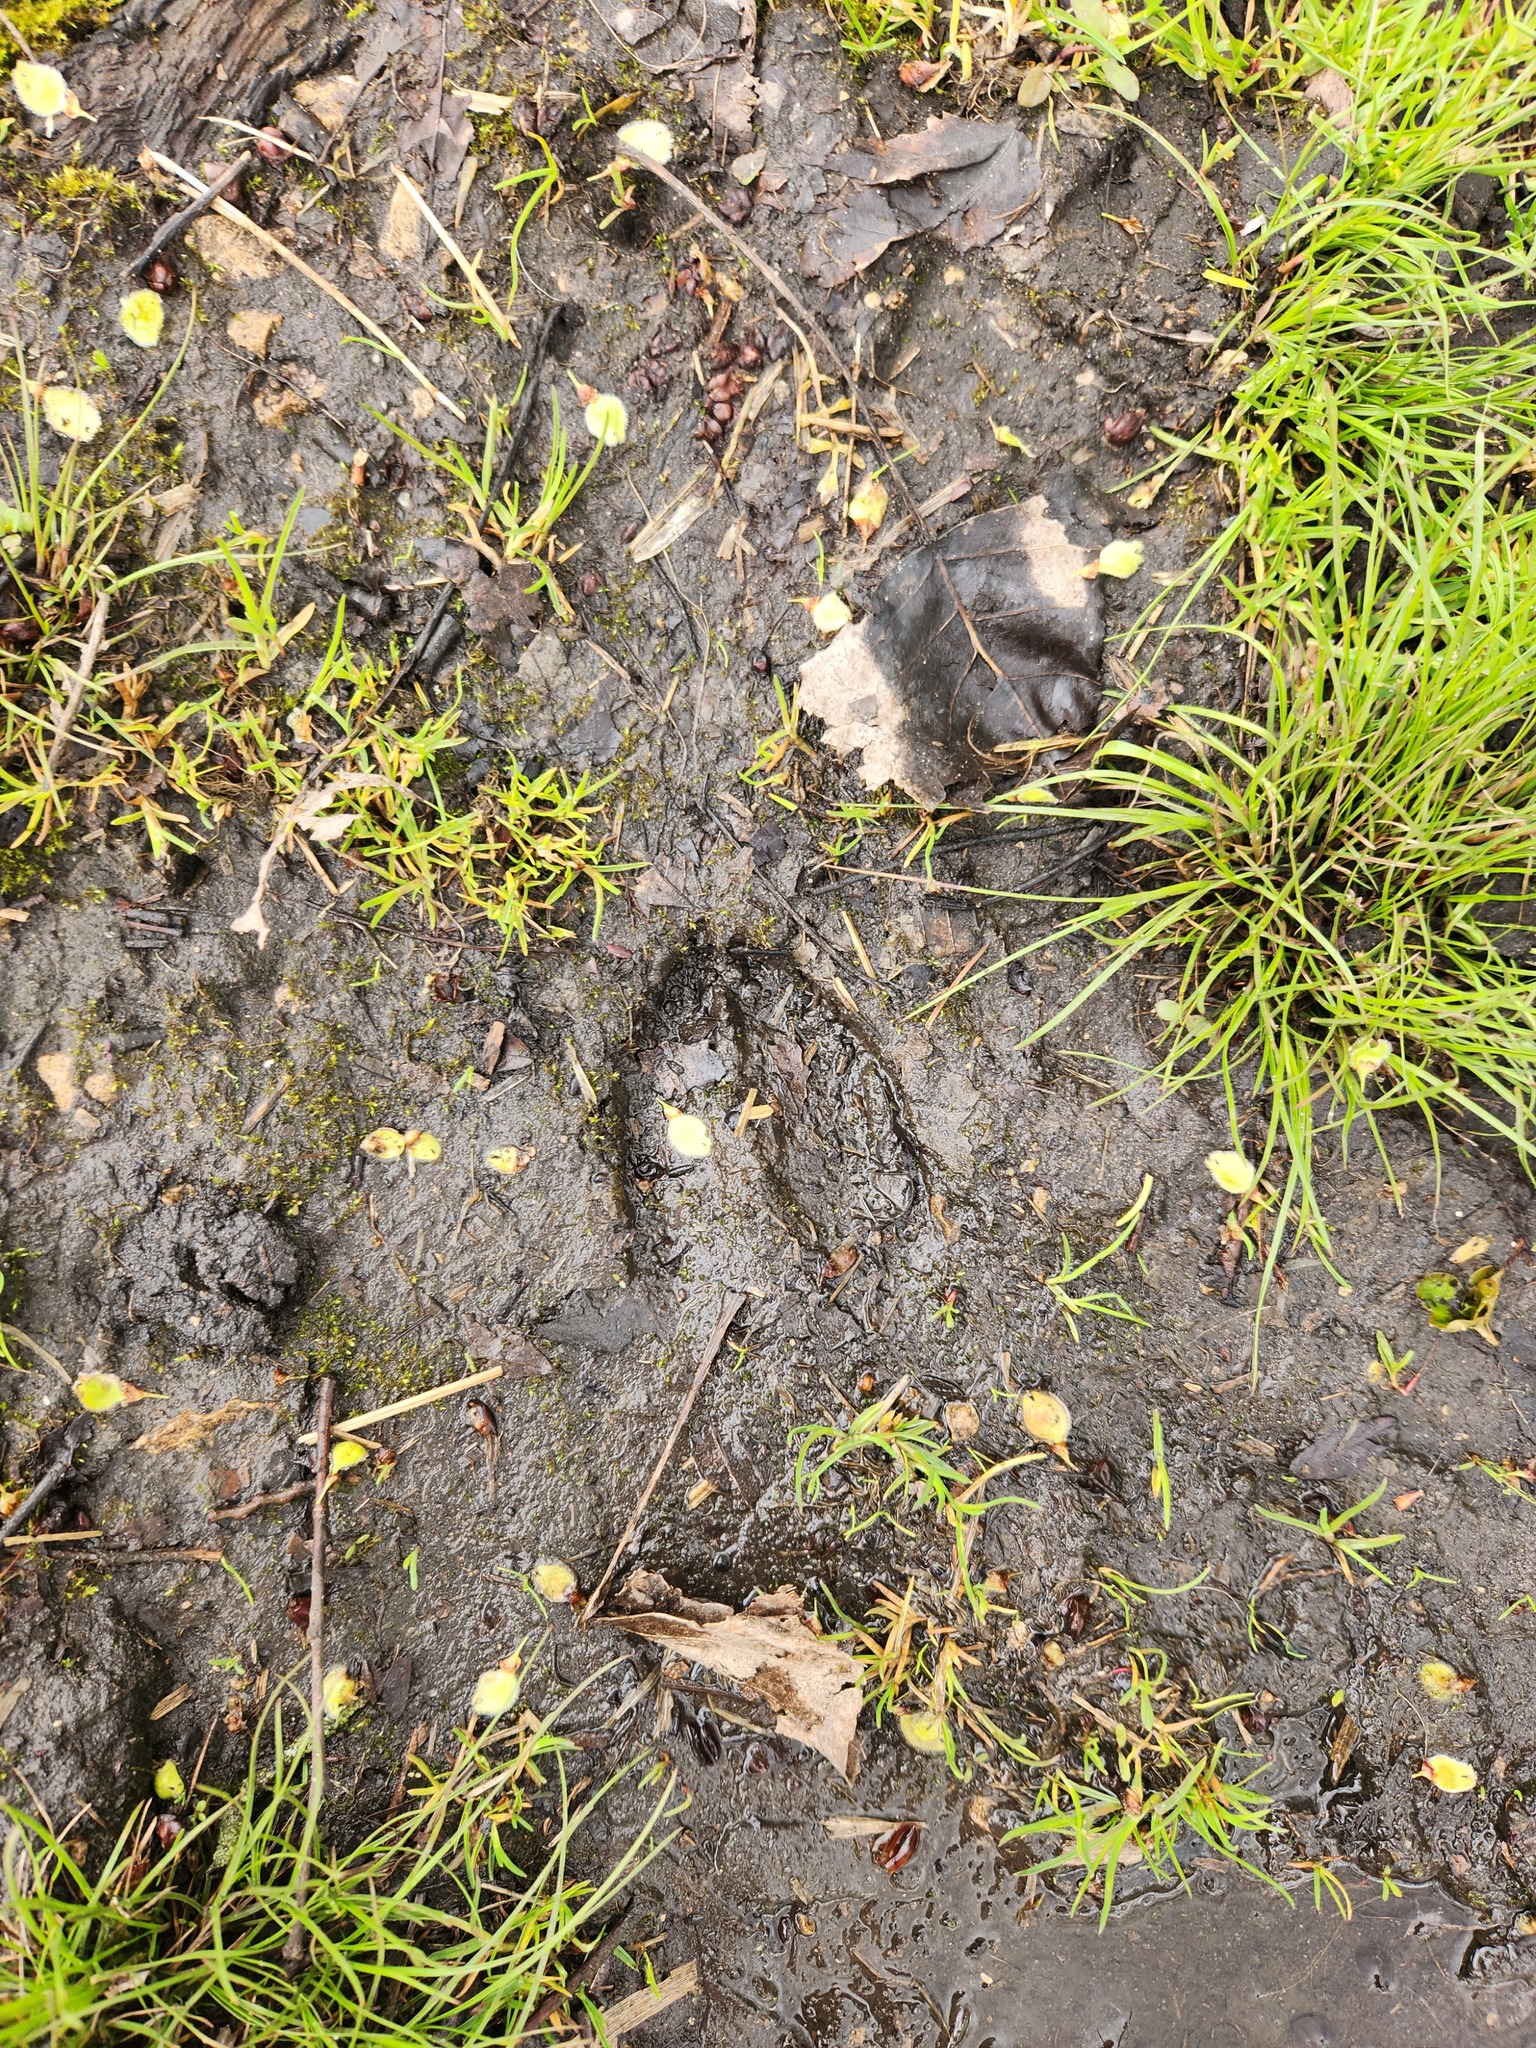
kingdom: Animalia
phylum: Chordata
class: Mammalia
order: Artiodactyla
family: Cervidae
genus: Odocoileus
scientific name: Odocoileus virginianus
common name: White-tailed deer
